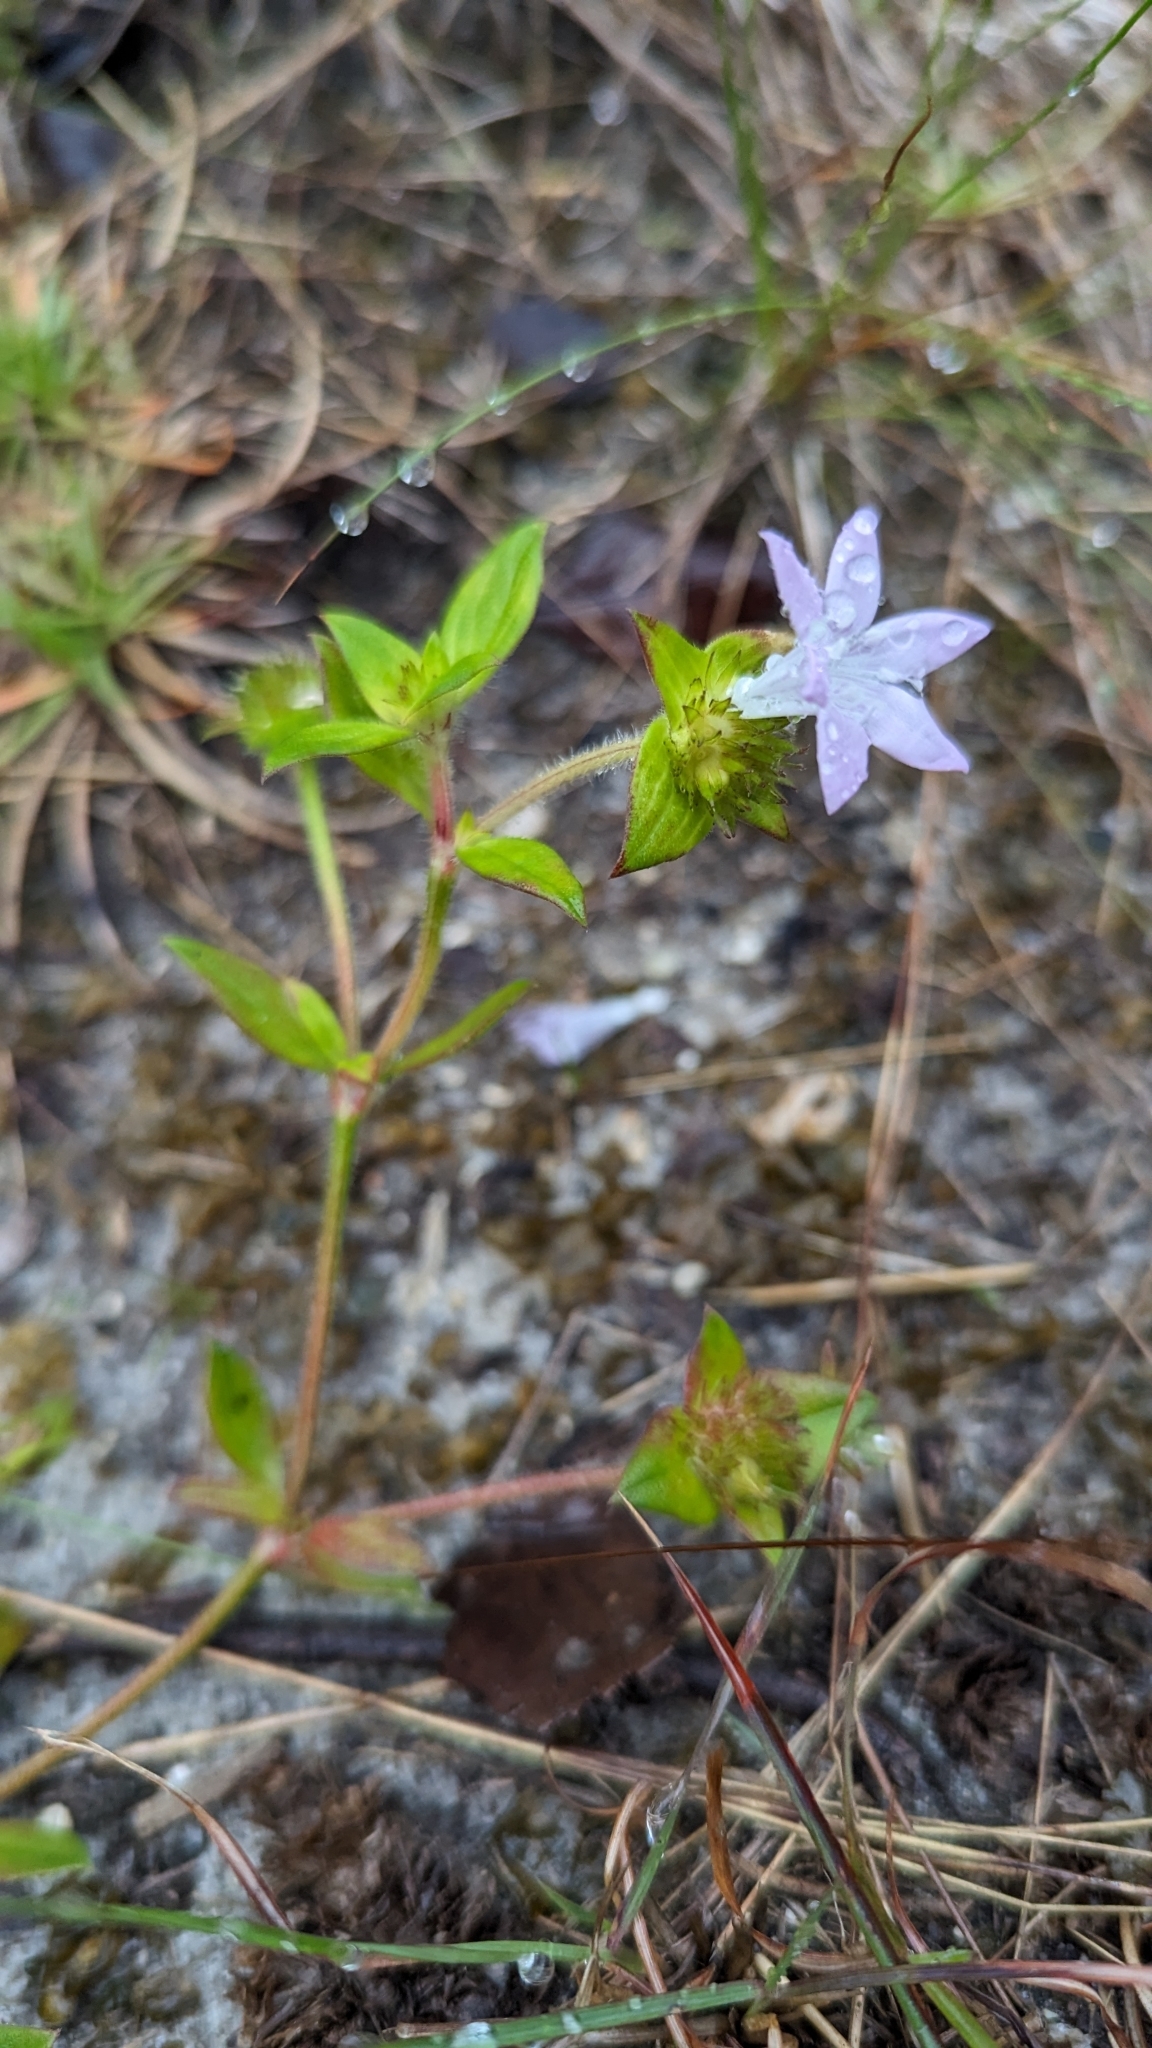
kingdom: Plantae
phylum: Tracheophyta
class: Magnoliopsida
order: Gentianales
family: Rubiaceae
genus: Richardia
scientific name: Richardia grandiflora
